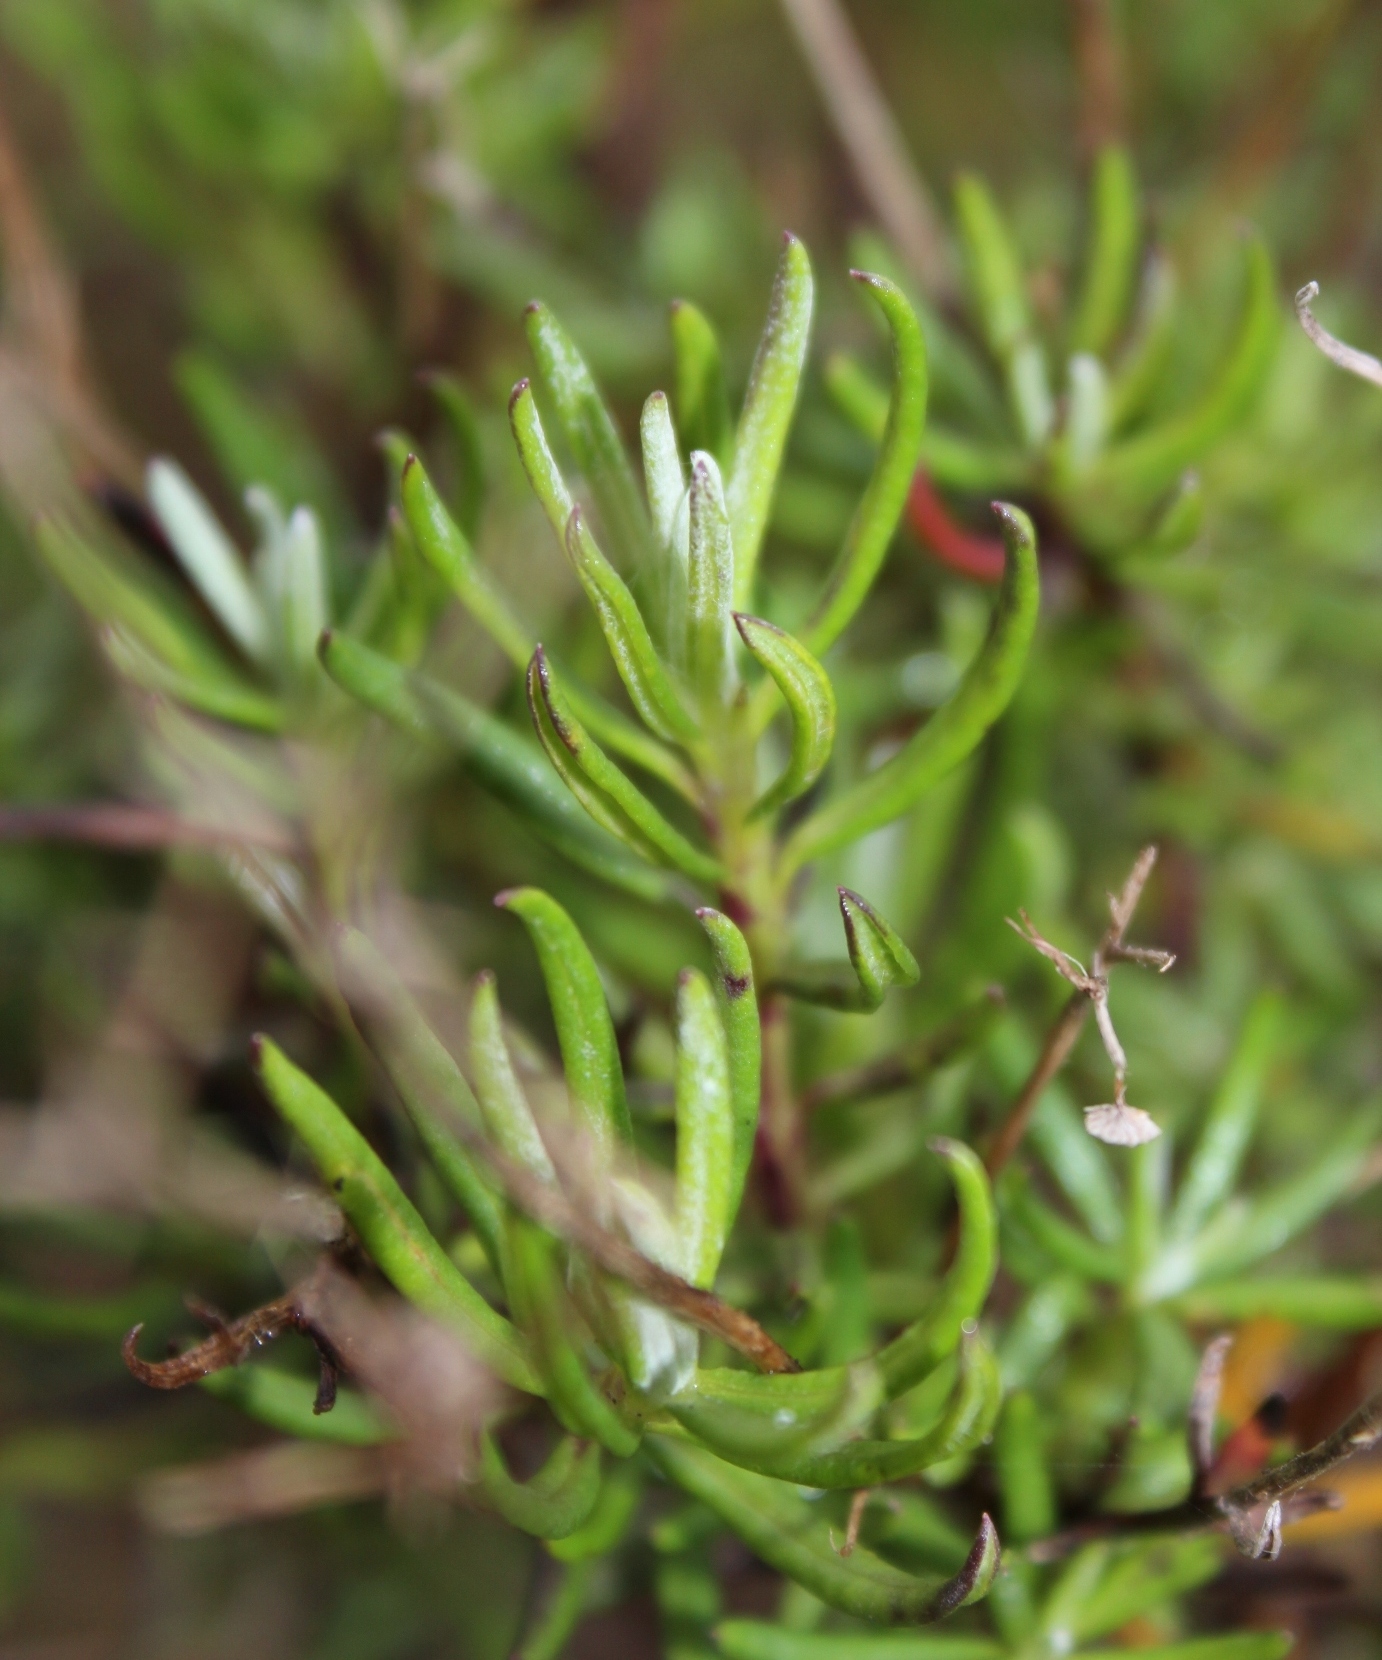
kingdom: Plantae
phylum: Tracheophyta
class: Magnoliopsida
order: Asterales
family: Asteraceae
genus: Senecio
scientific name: Senecio rosmarinifolius
